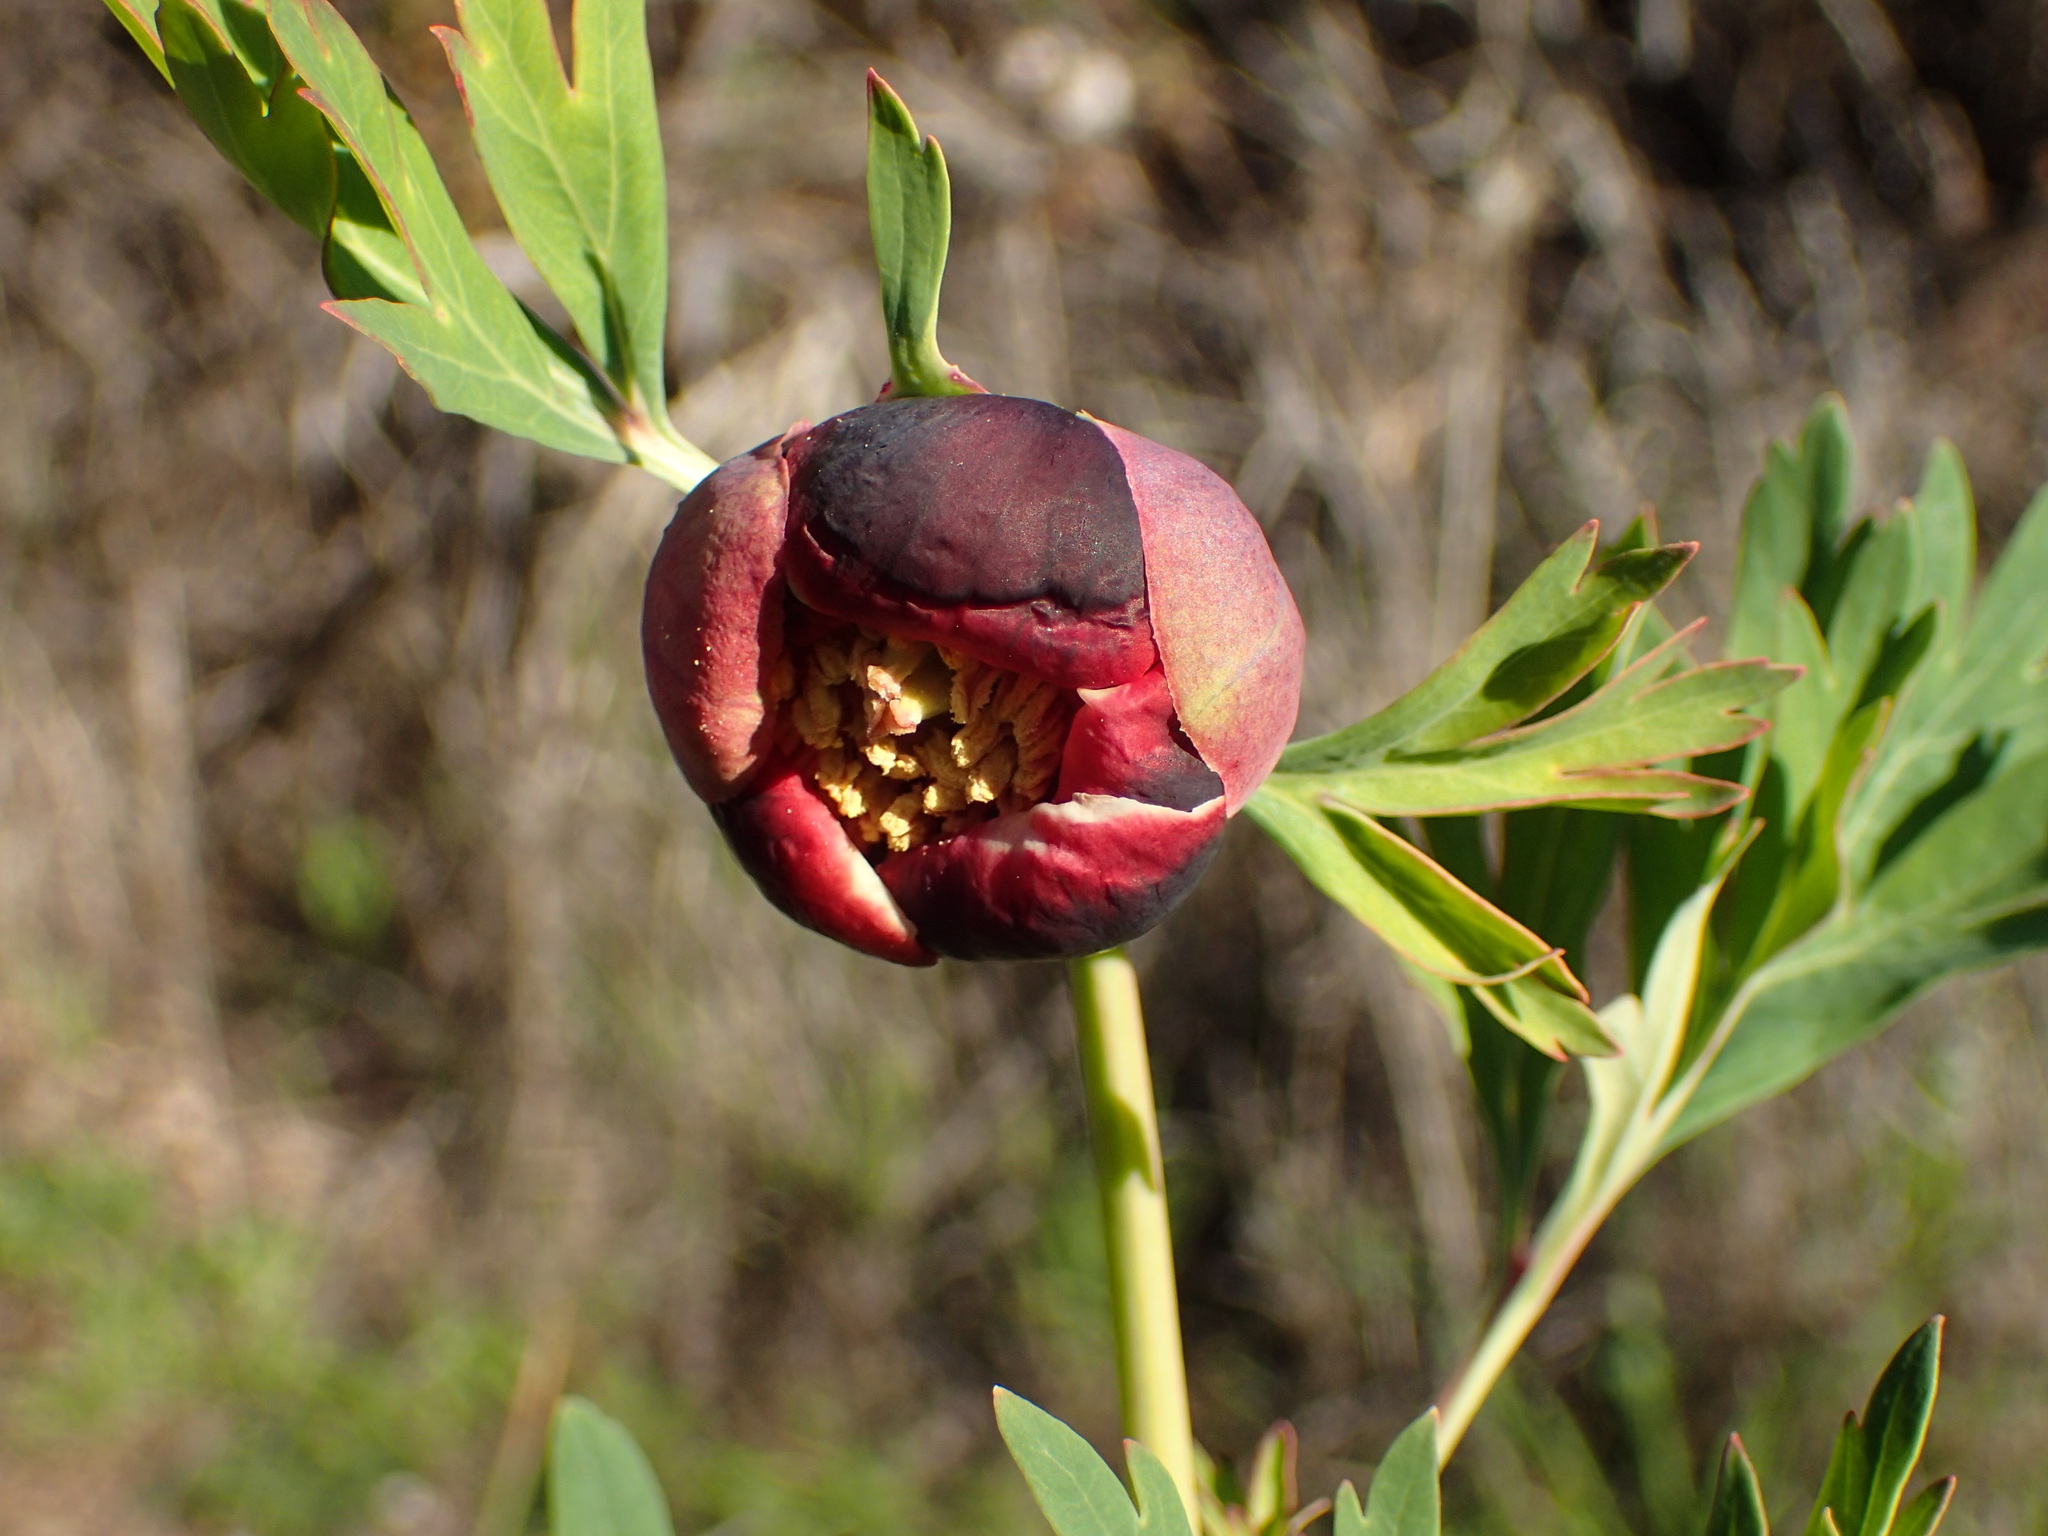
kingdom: Plantae
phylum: Tracheophyta
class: Magnoliopsida
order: Saxifragales
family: Paeoniaceae
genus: Paeonia
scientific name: Paeonia californica
